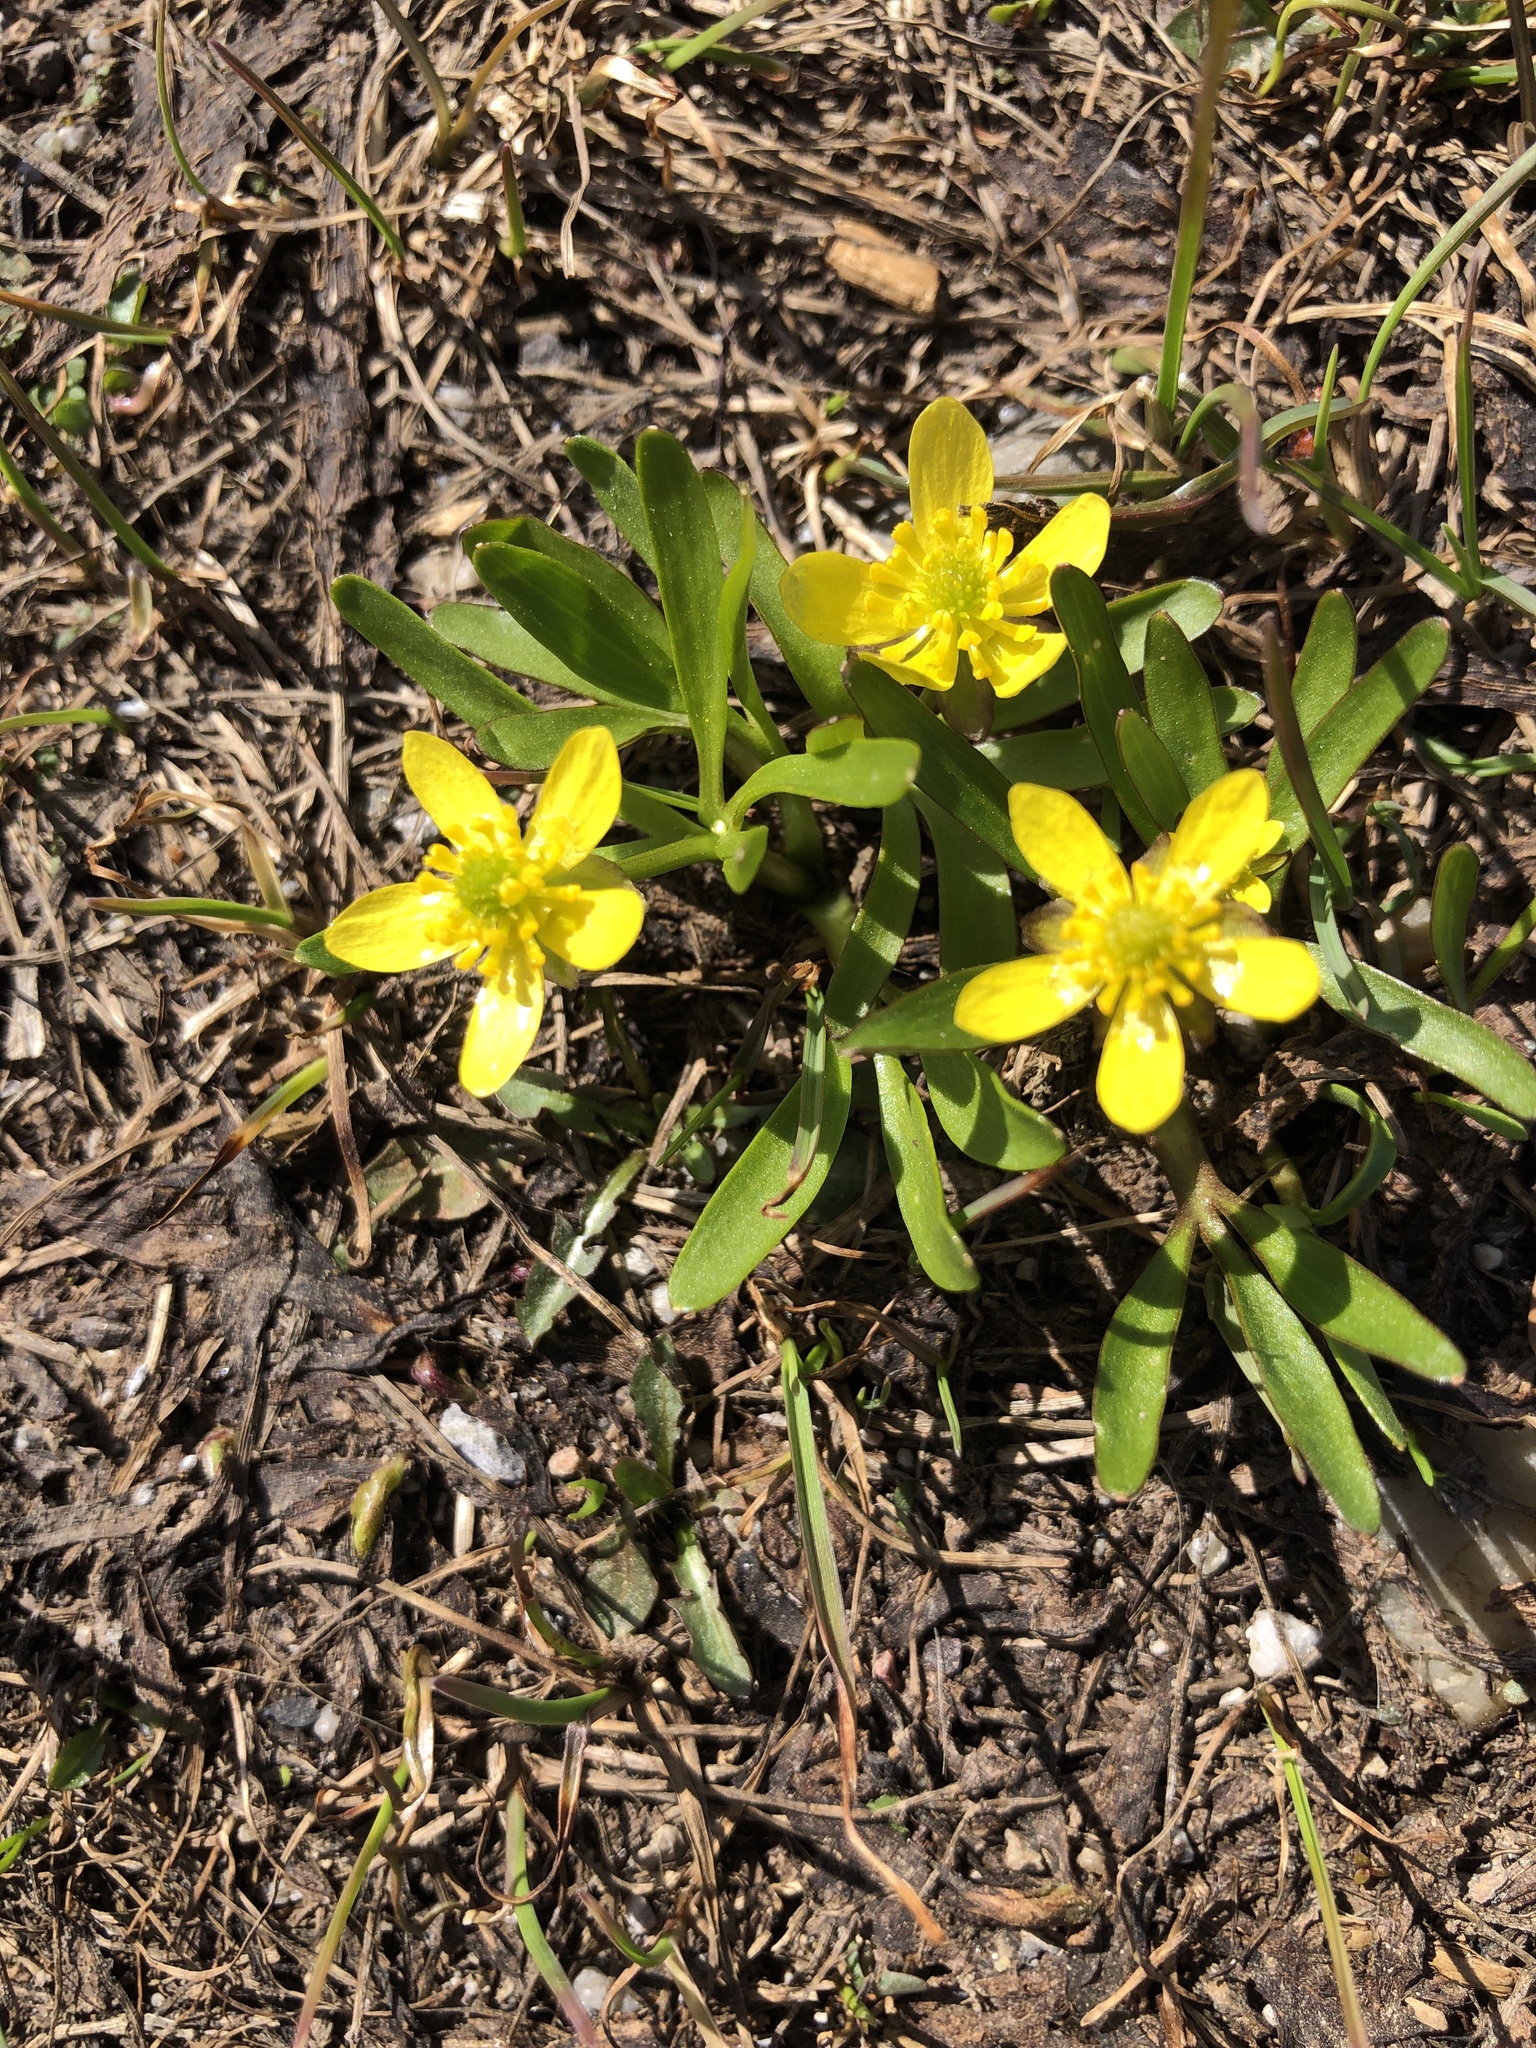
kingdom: Plantae
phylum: Tracheophyta
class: Magnoliopsida
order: Ranunculales
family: Ranunculaceae
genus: Ranunculus
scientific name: Ranunculus glaberrimus
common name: Sagebrush buttercup
